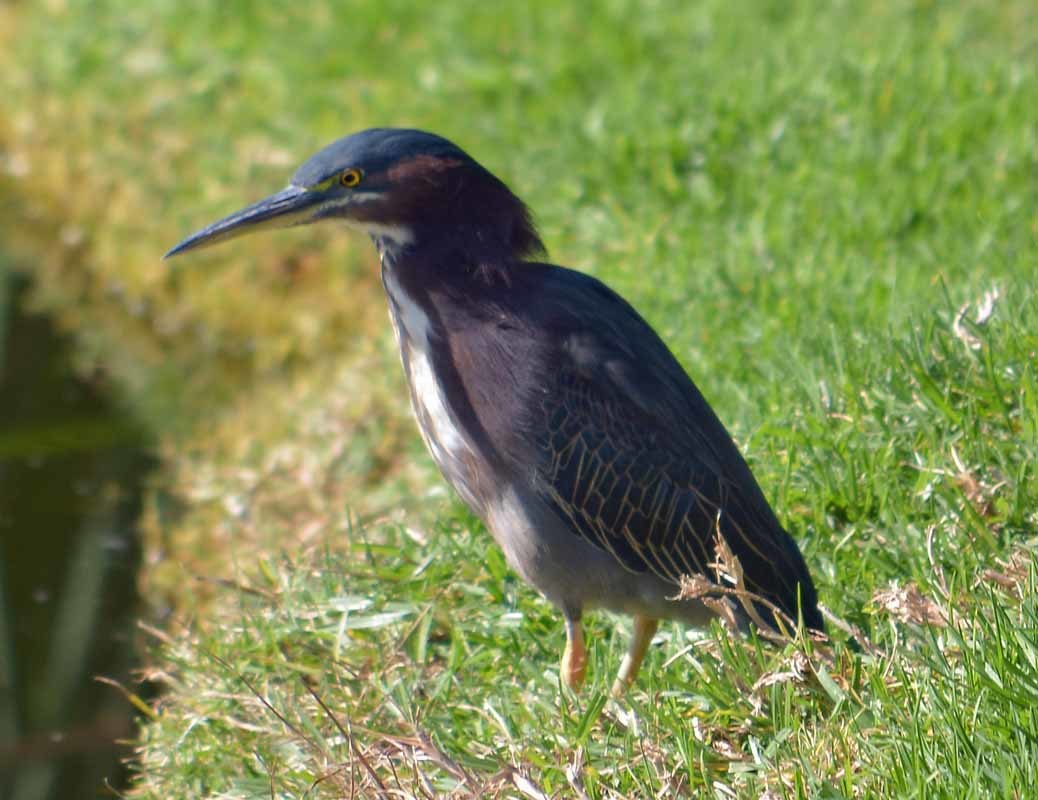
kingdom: Animalia
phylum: Chordata
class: Aves
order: Pelecaniformes
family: Ardeidae
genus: Butorides
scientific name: Butorides virescens
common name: Green heron
